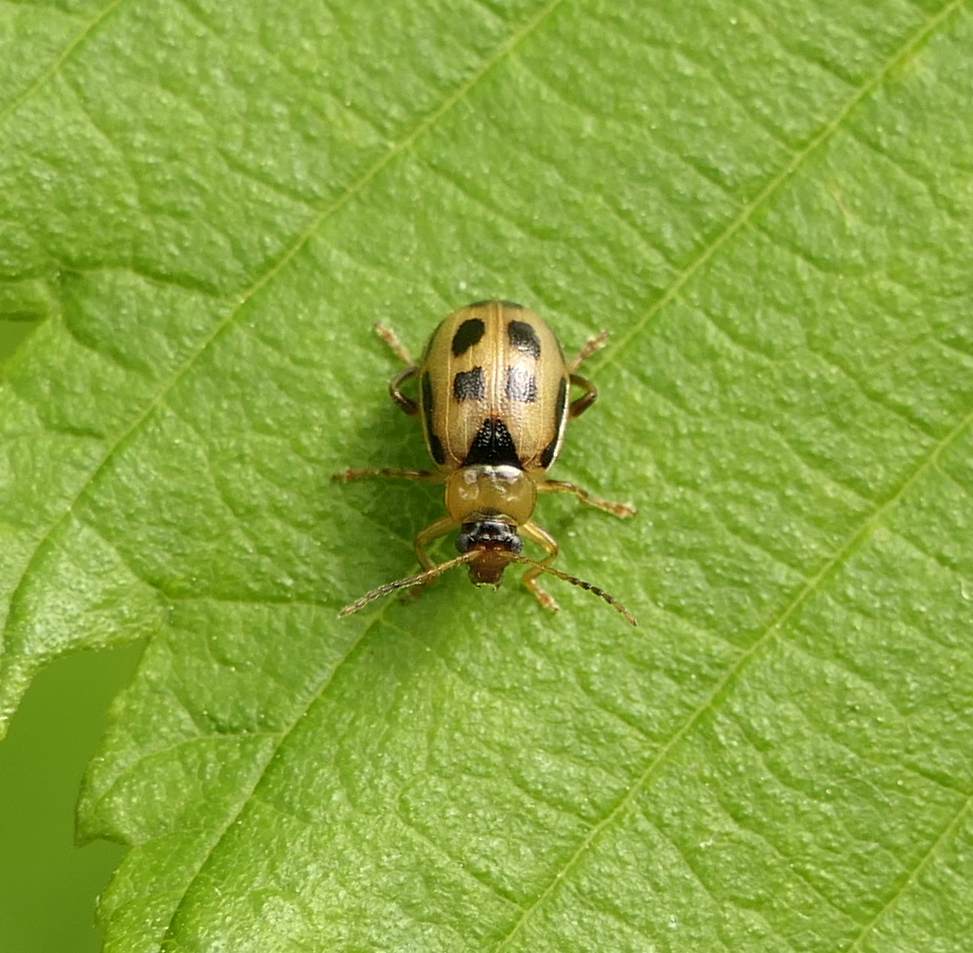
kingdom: Animalia
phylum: Arthropoda
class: Insecta
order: Coleoptera
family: Chrysomelidae
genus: Cerotoma
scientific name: Cerotoma trifurcata
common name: Bean leaf beetle
